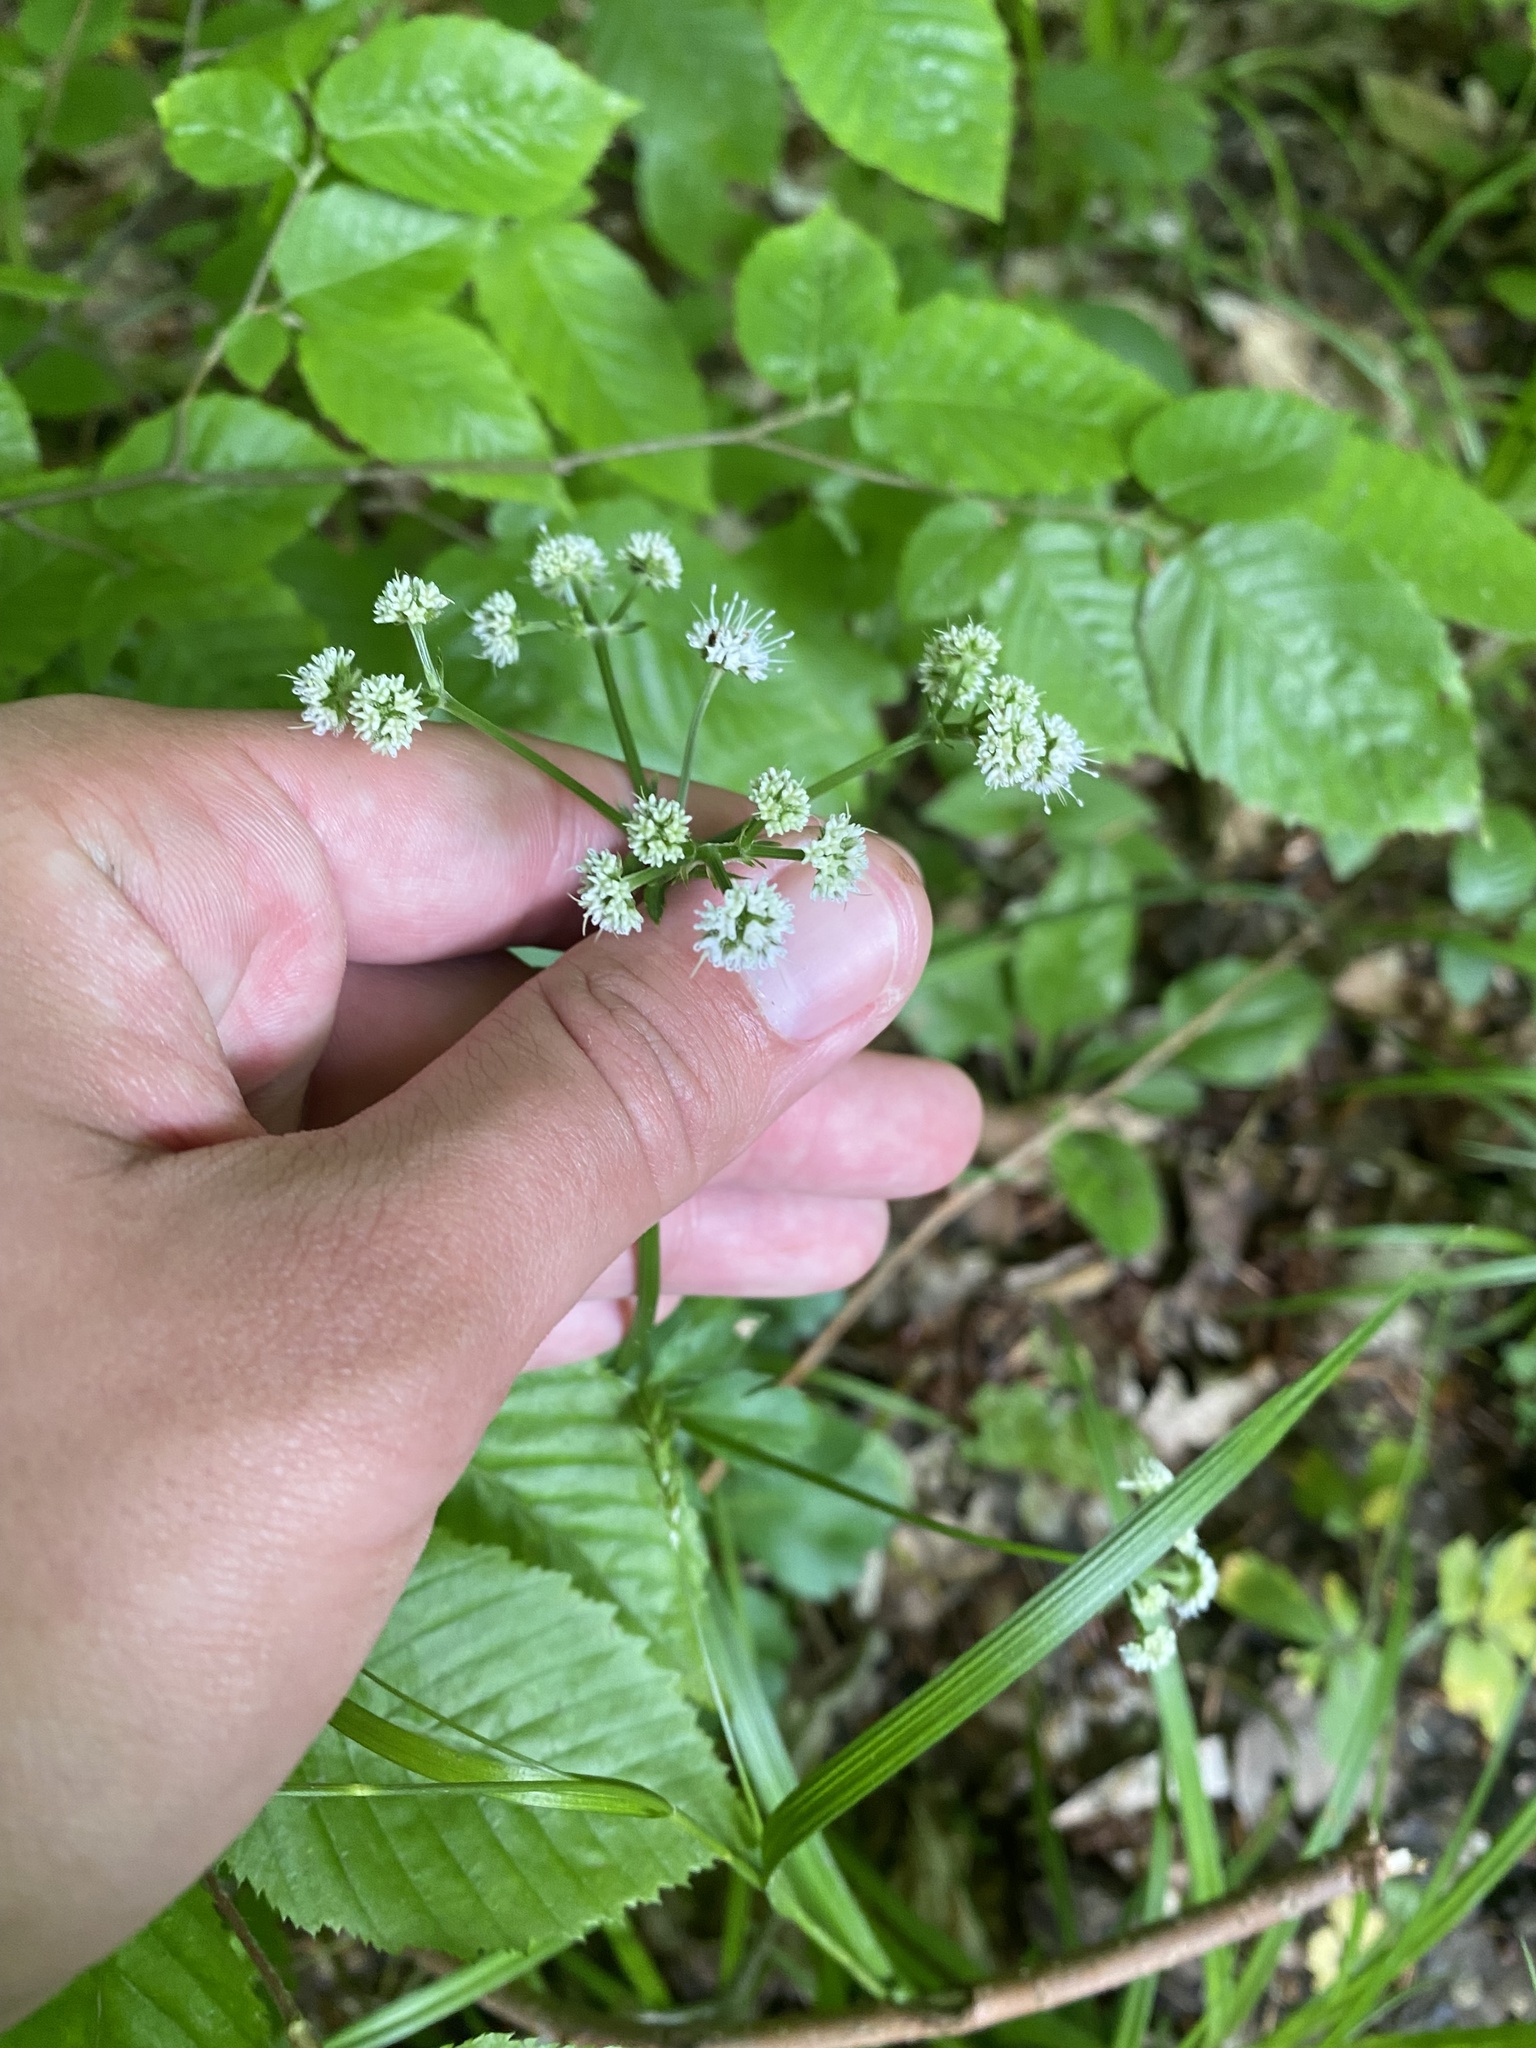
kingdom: Plantae
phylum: Tracheophyta
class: Magnoliopsida
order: Apiales
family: Apiaceae
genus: Sanicula
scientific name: Sanicula europaea
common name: Sanicle
